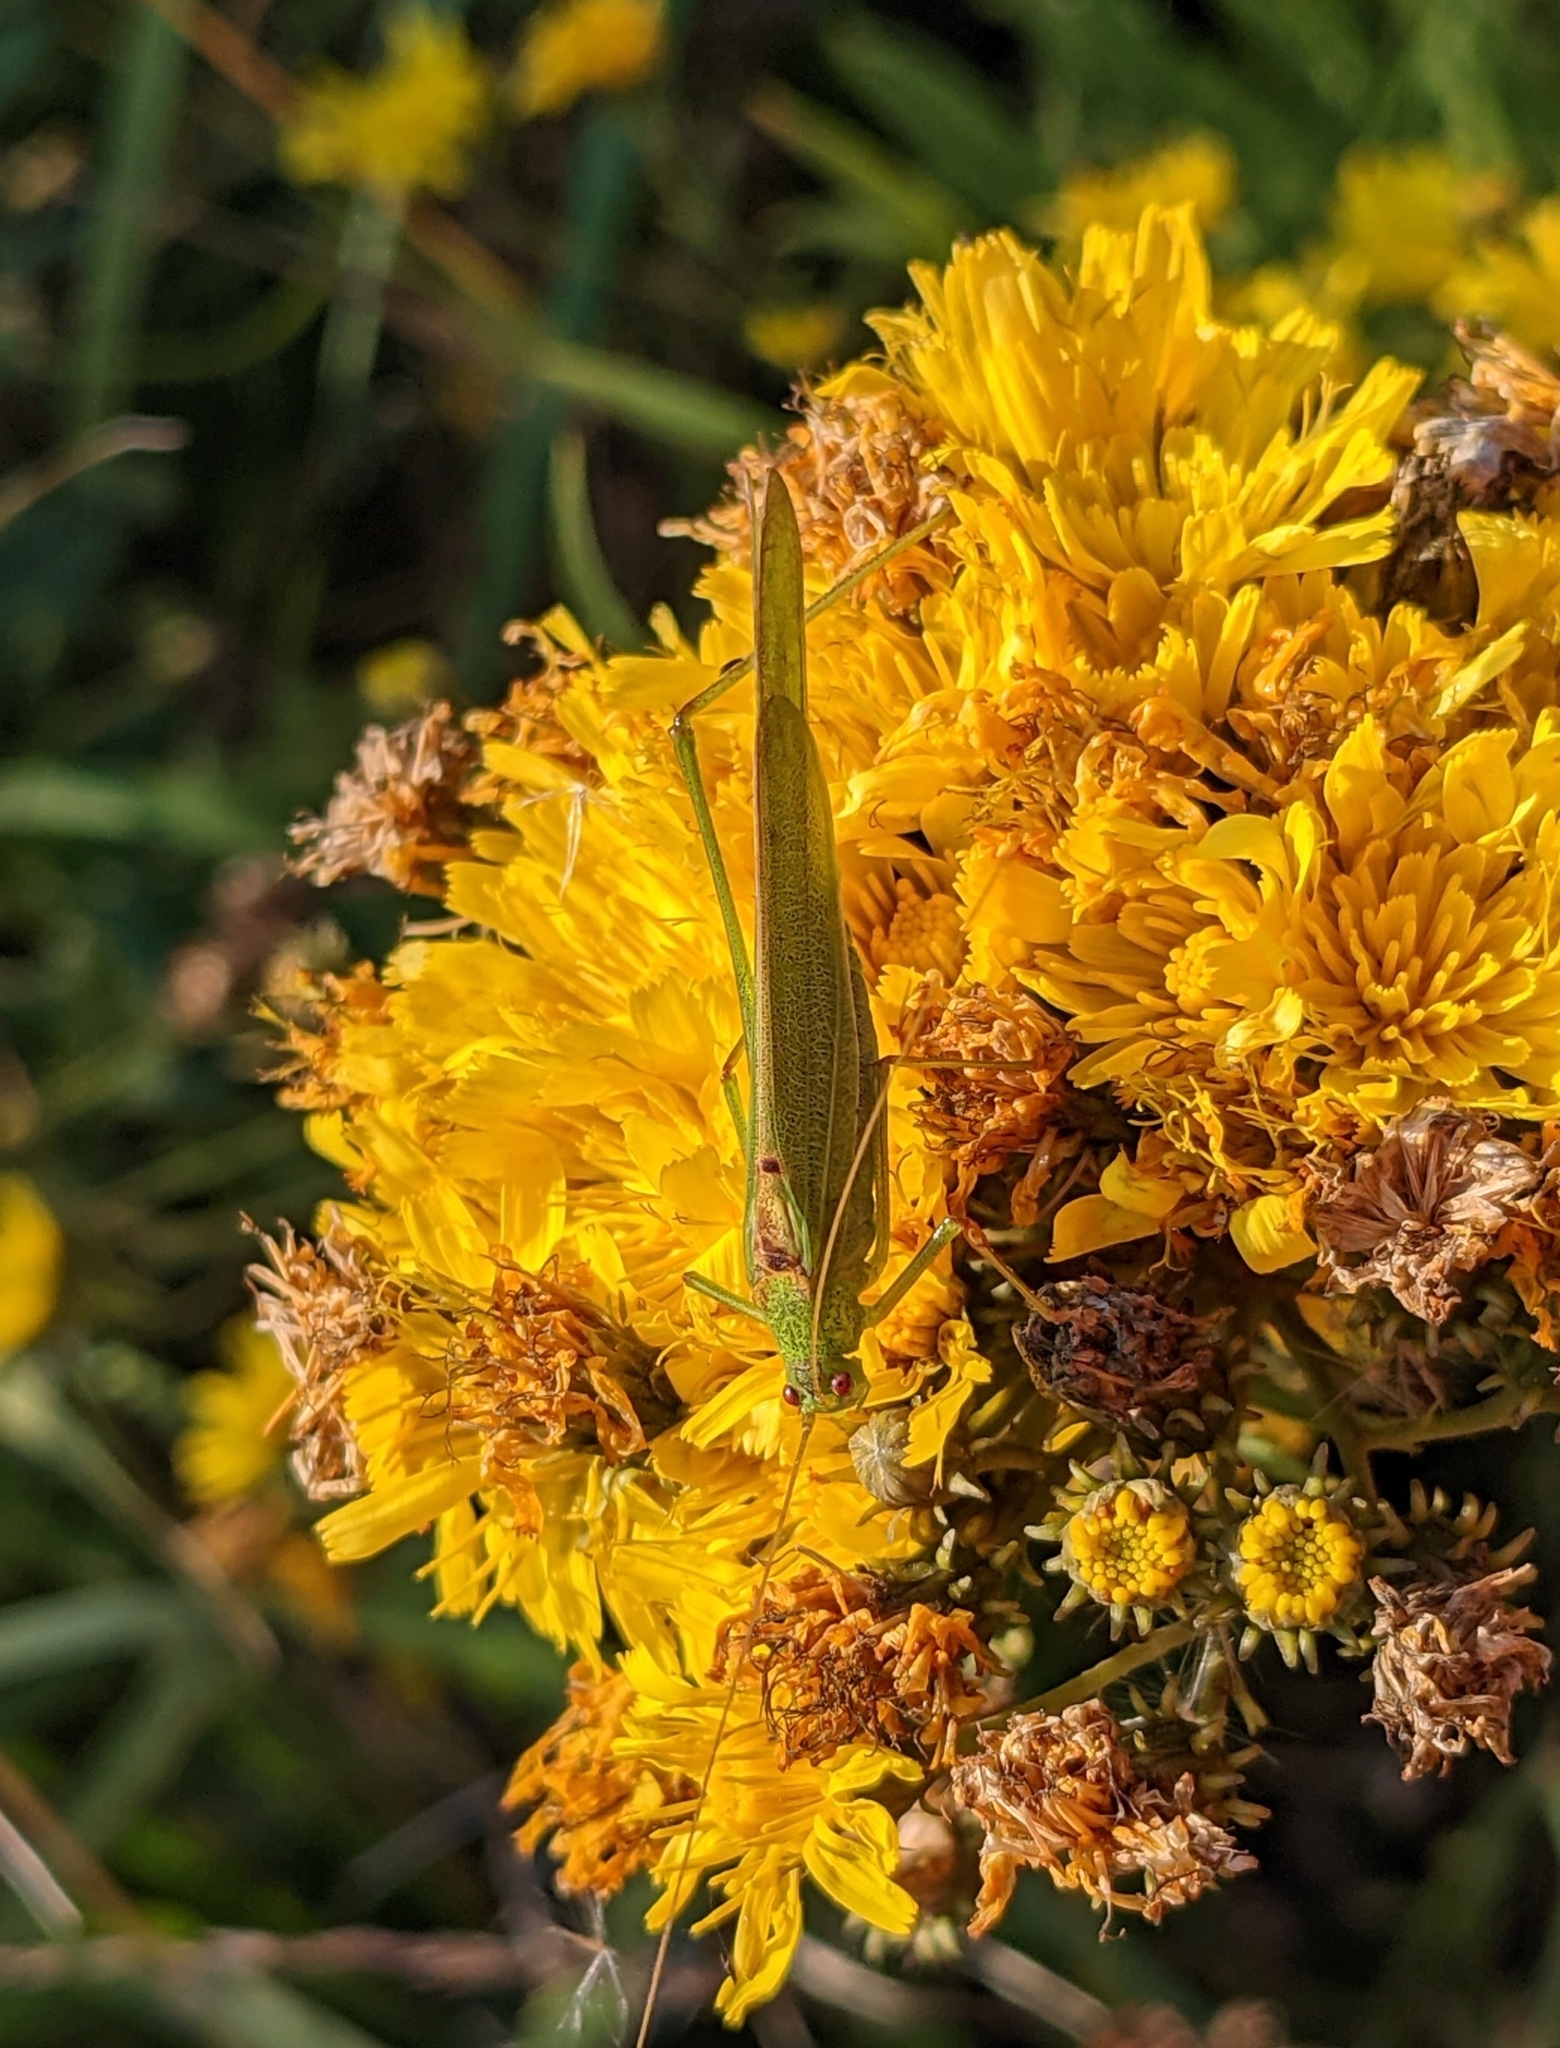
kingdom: Animalia
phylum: Arthropoda
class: Insecta
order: Orthoptera
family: Tettigoniidae
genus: Phaneroptera
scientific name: Phaneroptera falcata
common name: Sickle-bearing bush-cricket
